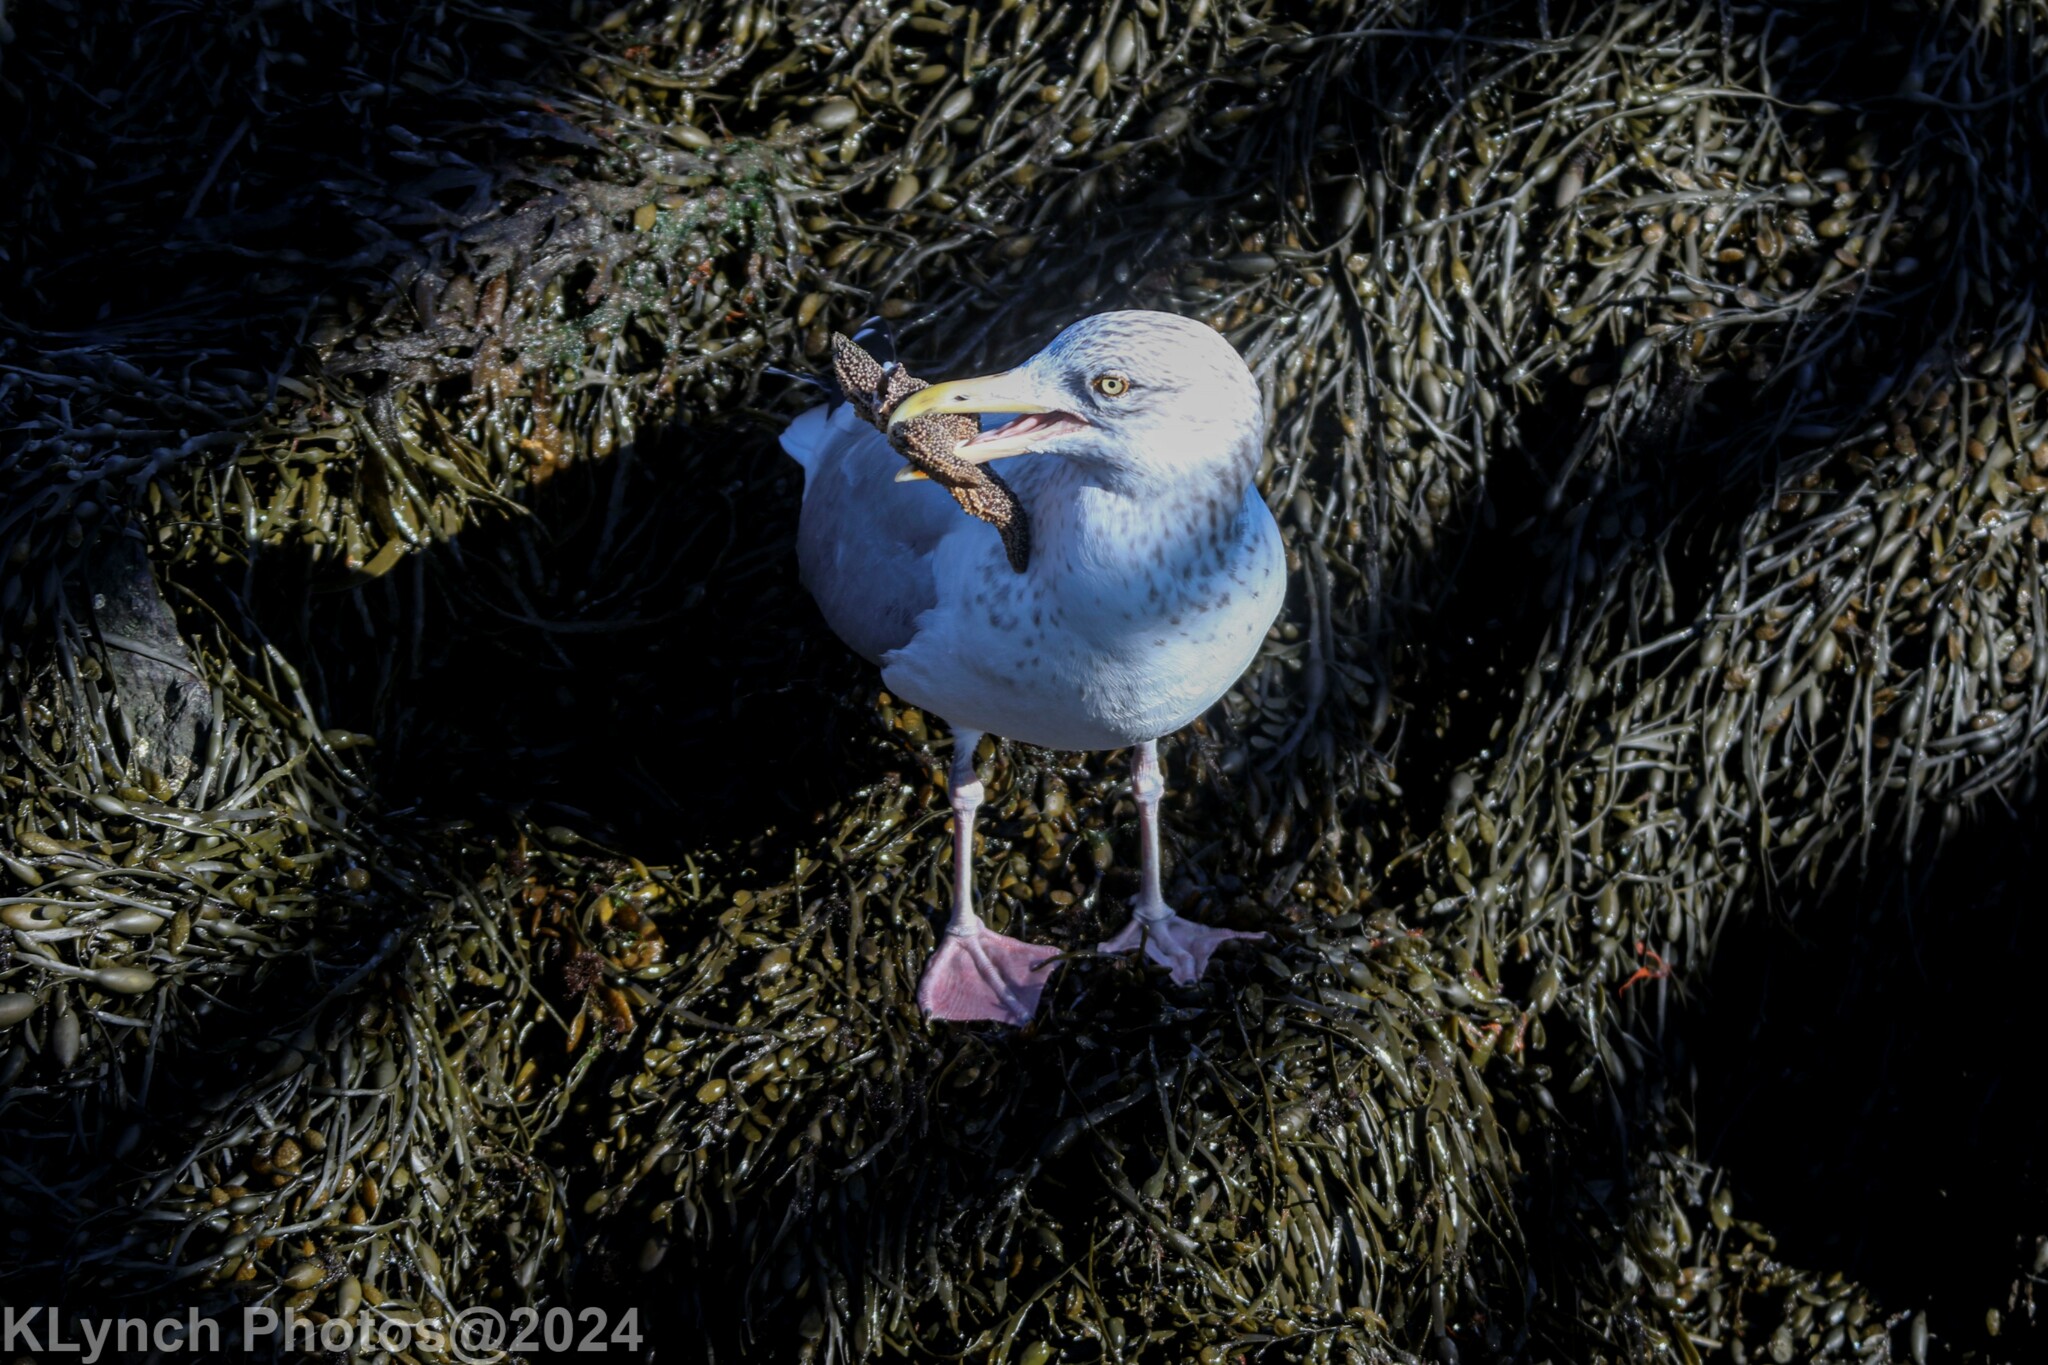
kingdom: Animalia
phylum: Chordata
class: Aves
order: Charadriiformes
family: Laridae
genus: Larus
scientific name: Larus argentatus
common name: Herring gull
